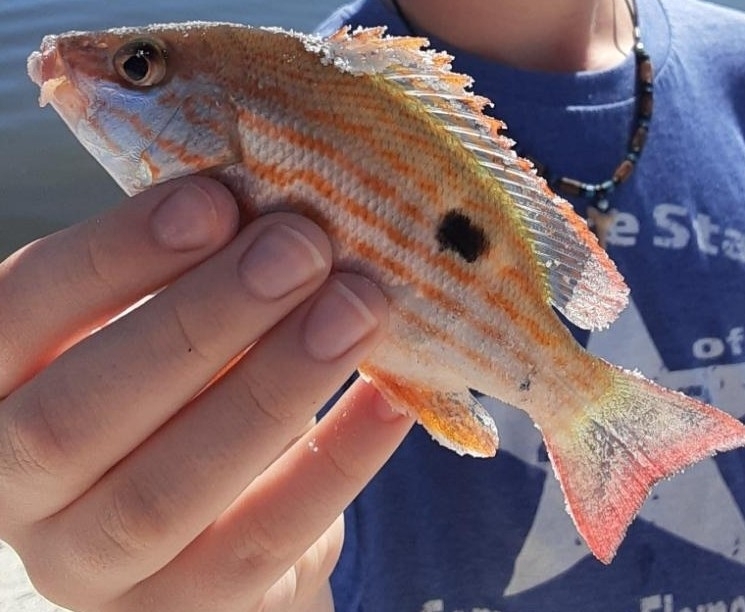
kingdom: Animalia
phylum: Chordata
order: Perciformes
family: Lutjanidae
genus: Lutjanus
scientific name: Lutjanus synagris
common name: Lane snapper
